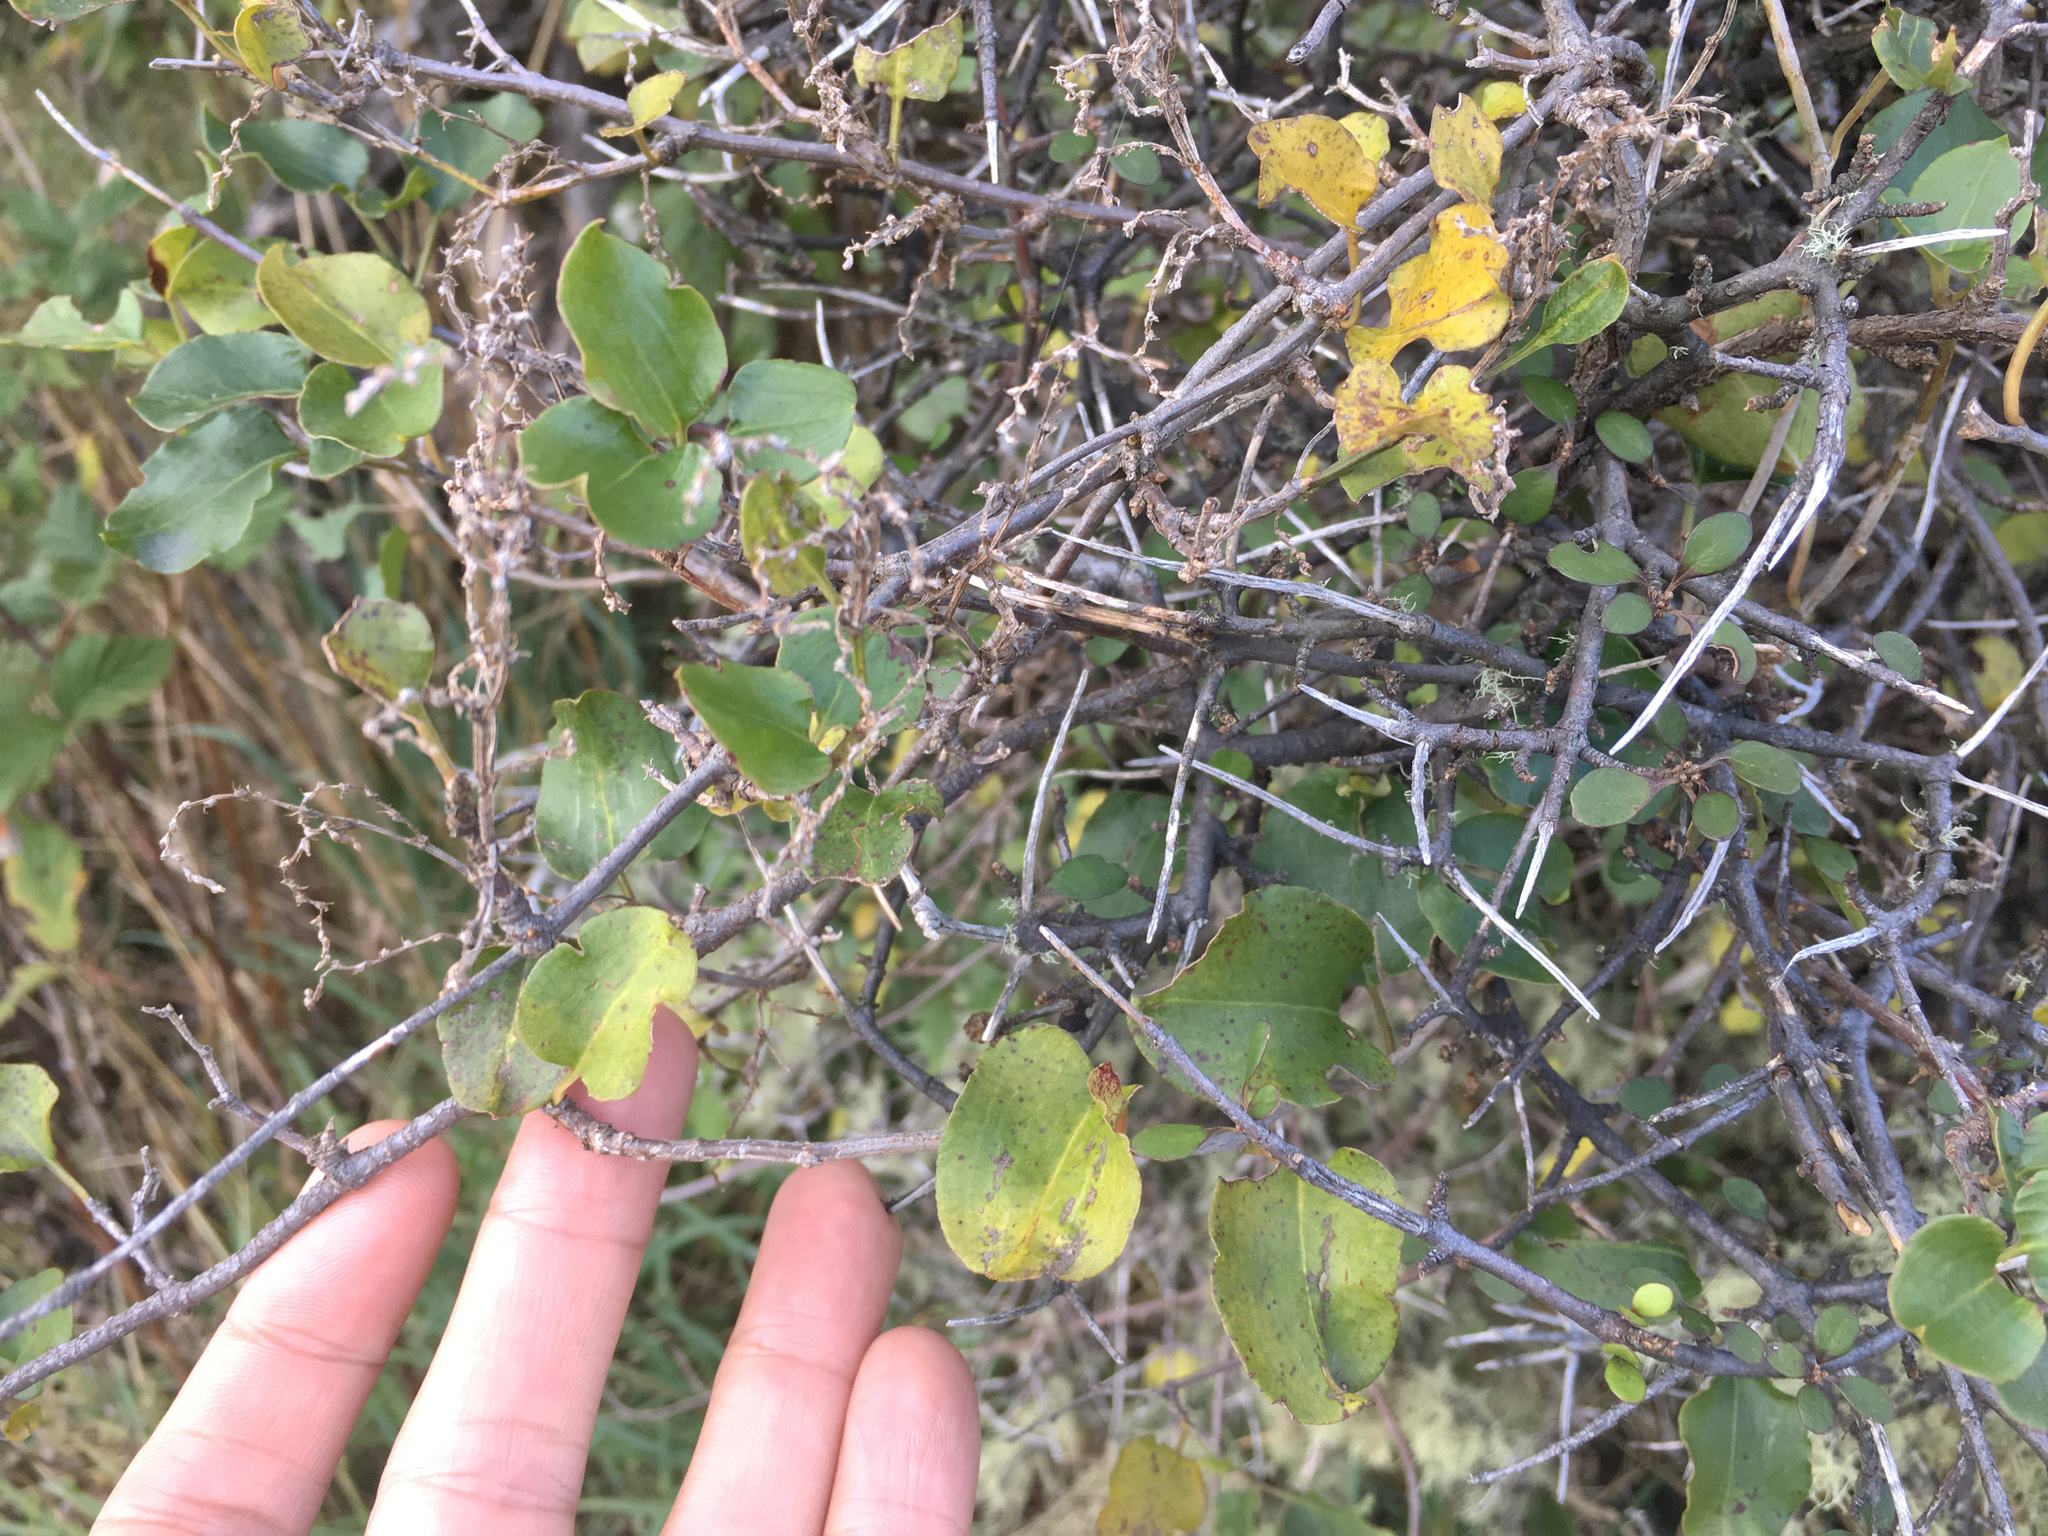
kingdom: Plantae
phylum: Tracheophyta
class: Magnoliopsida
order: Caryophyllales
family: Polygonaceae
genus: Muehlenbeckia
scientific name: Muehlenbeckia australis
